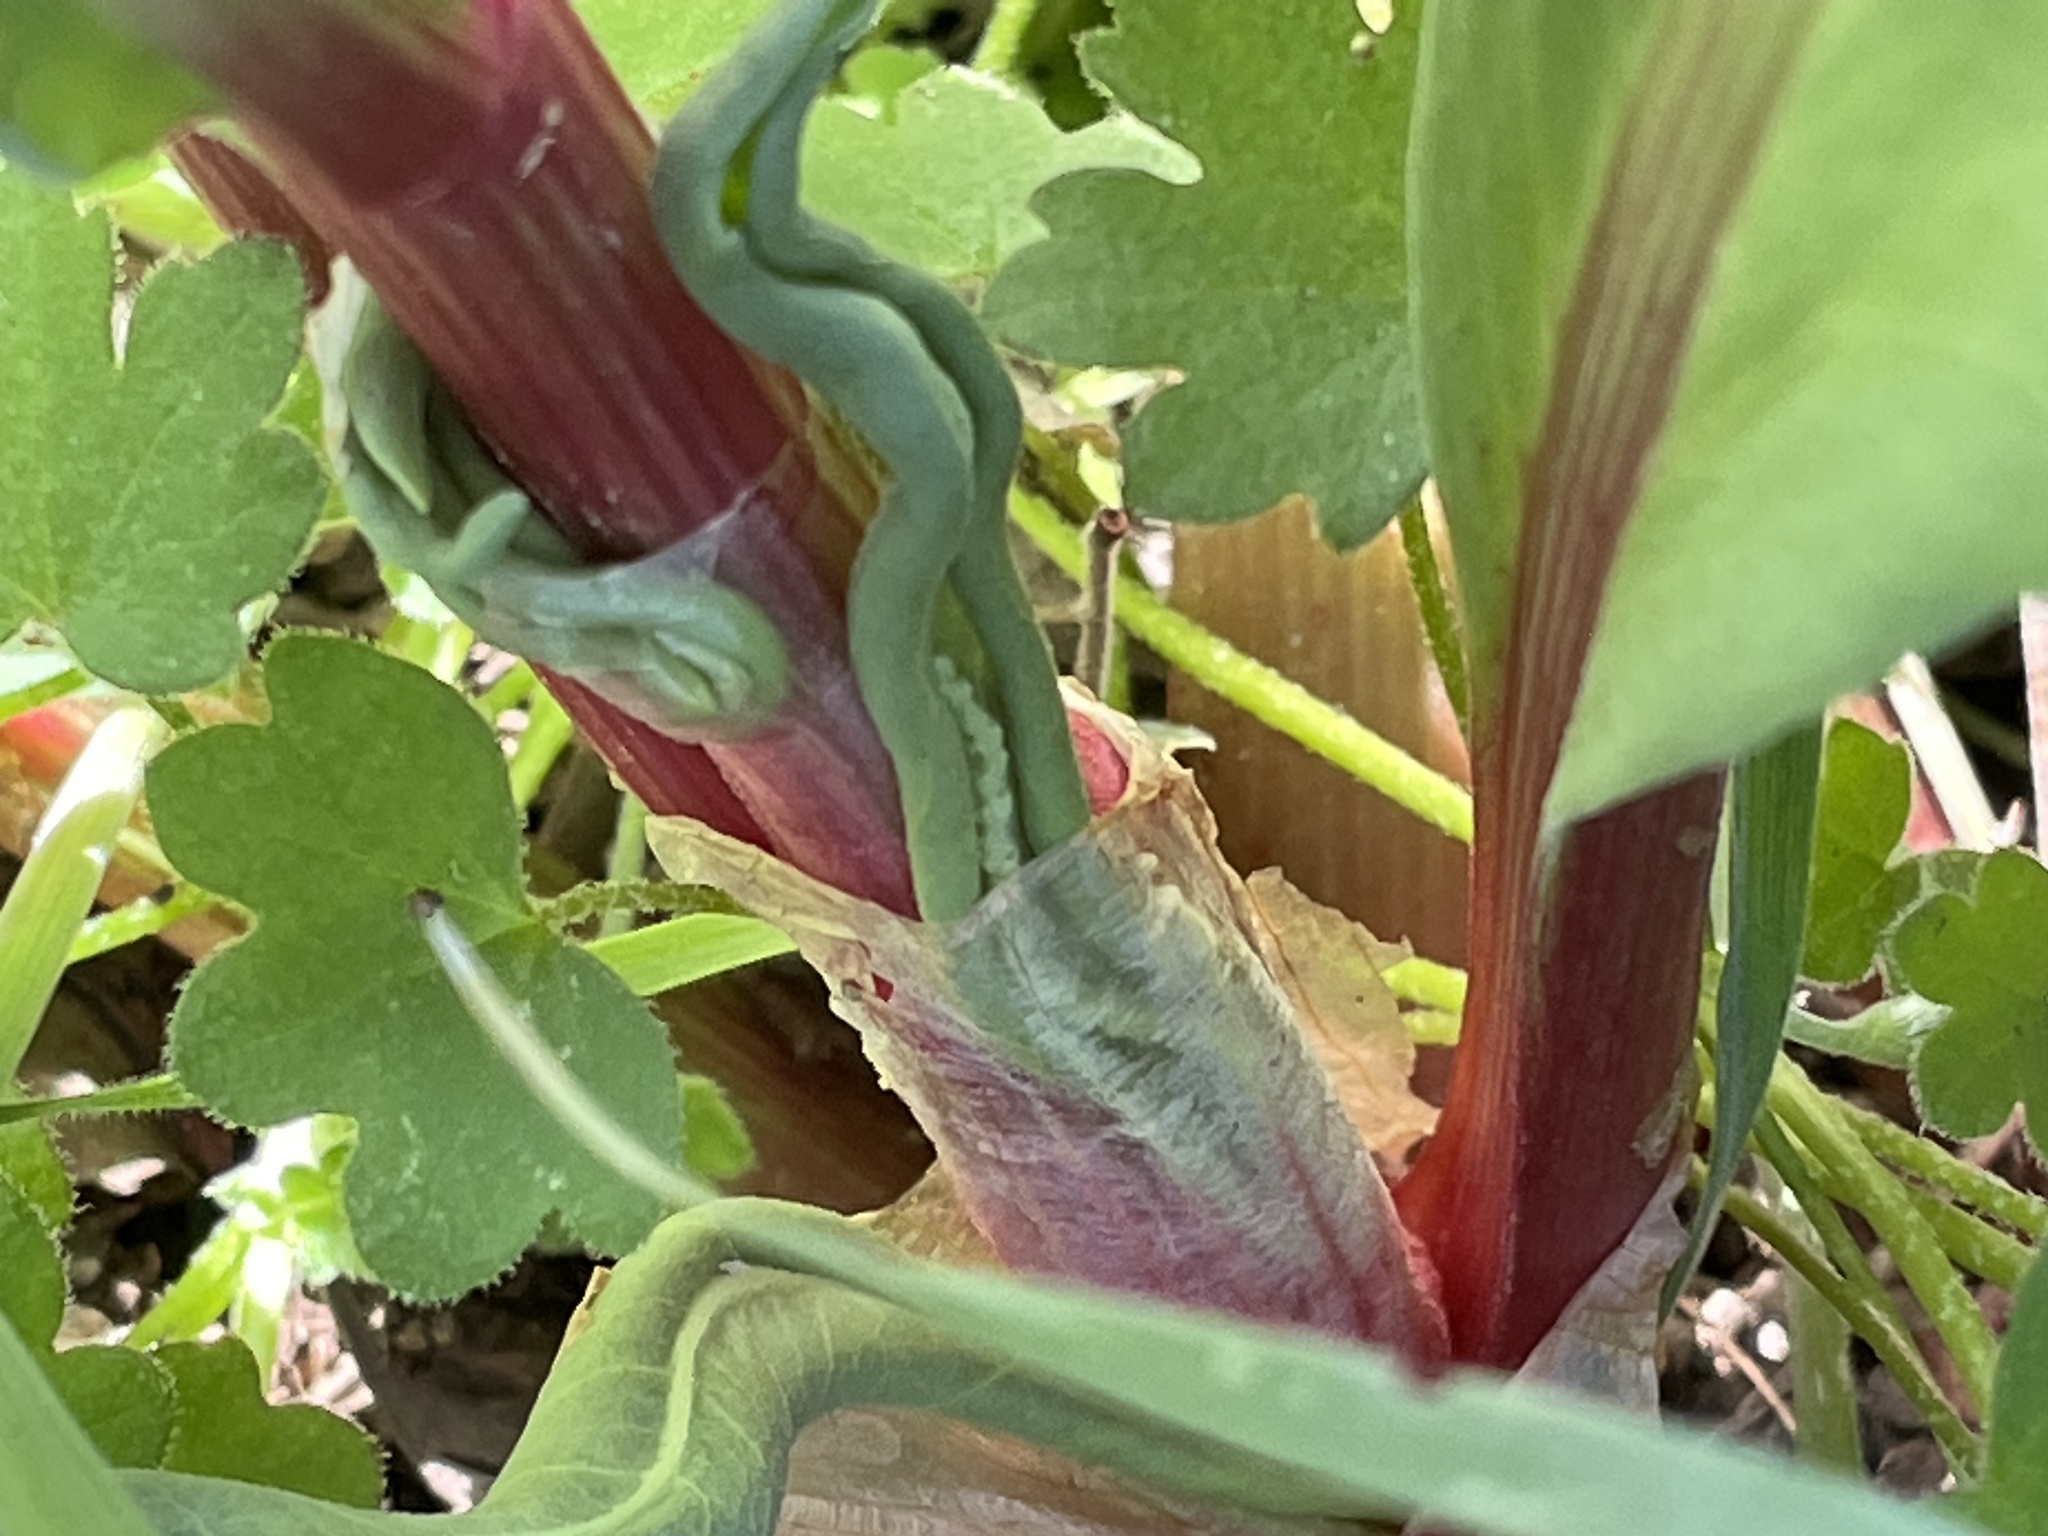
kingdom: Plantae
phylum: Tracheophyta
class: Magnoliopsida
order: Caryophyllales
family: Polygonaceae
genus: Rumex
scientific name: Rumex hymenosepalus
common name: Ganagra
